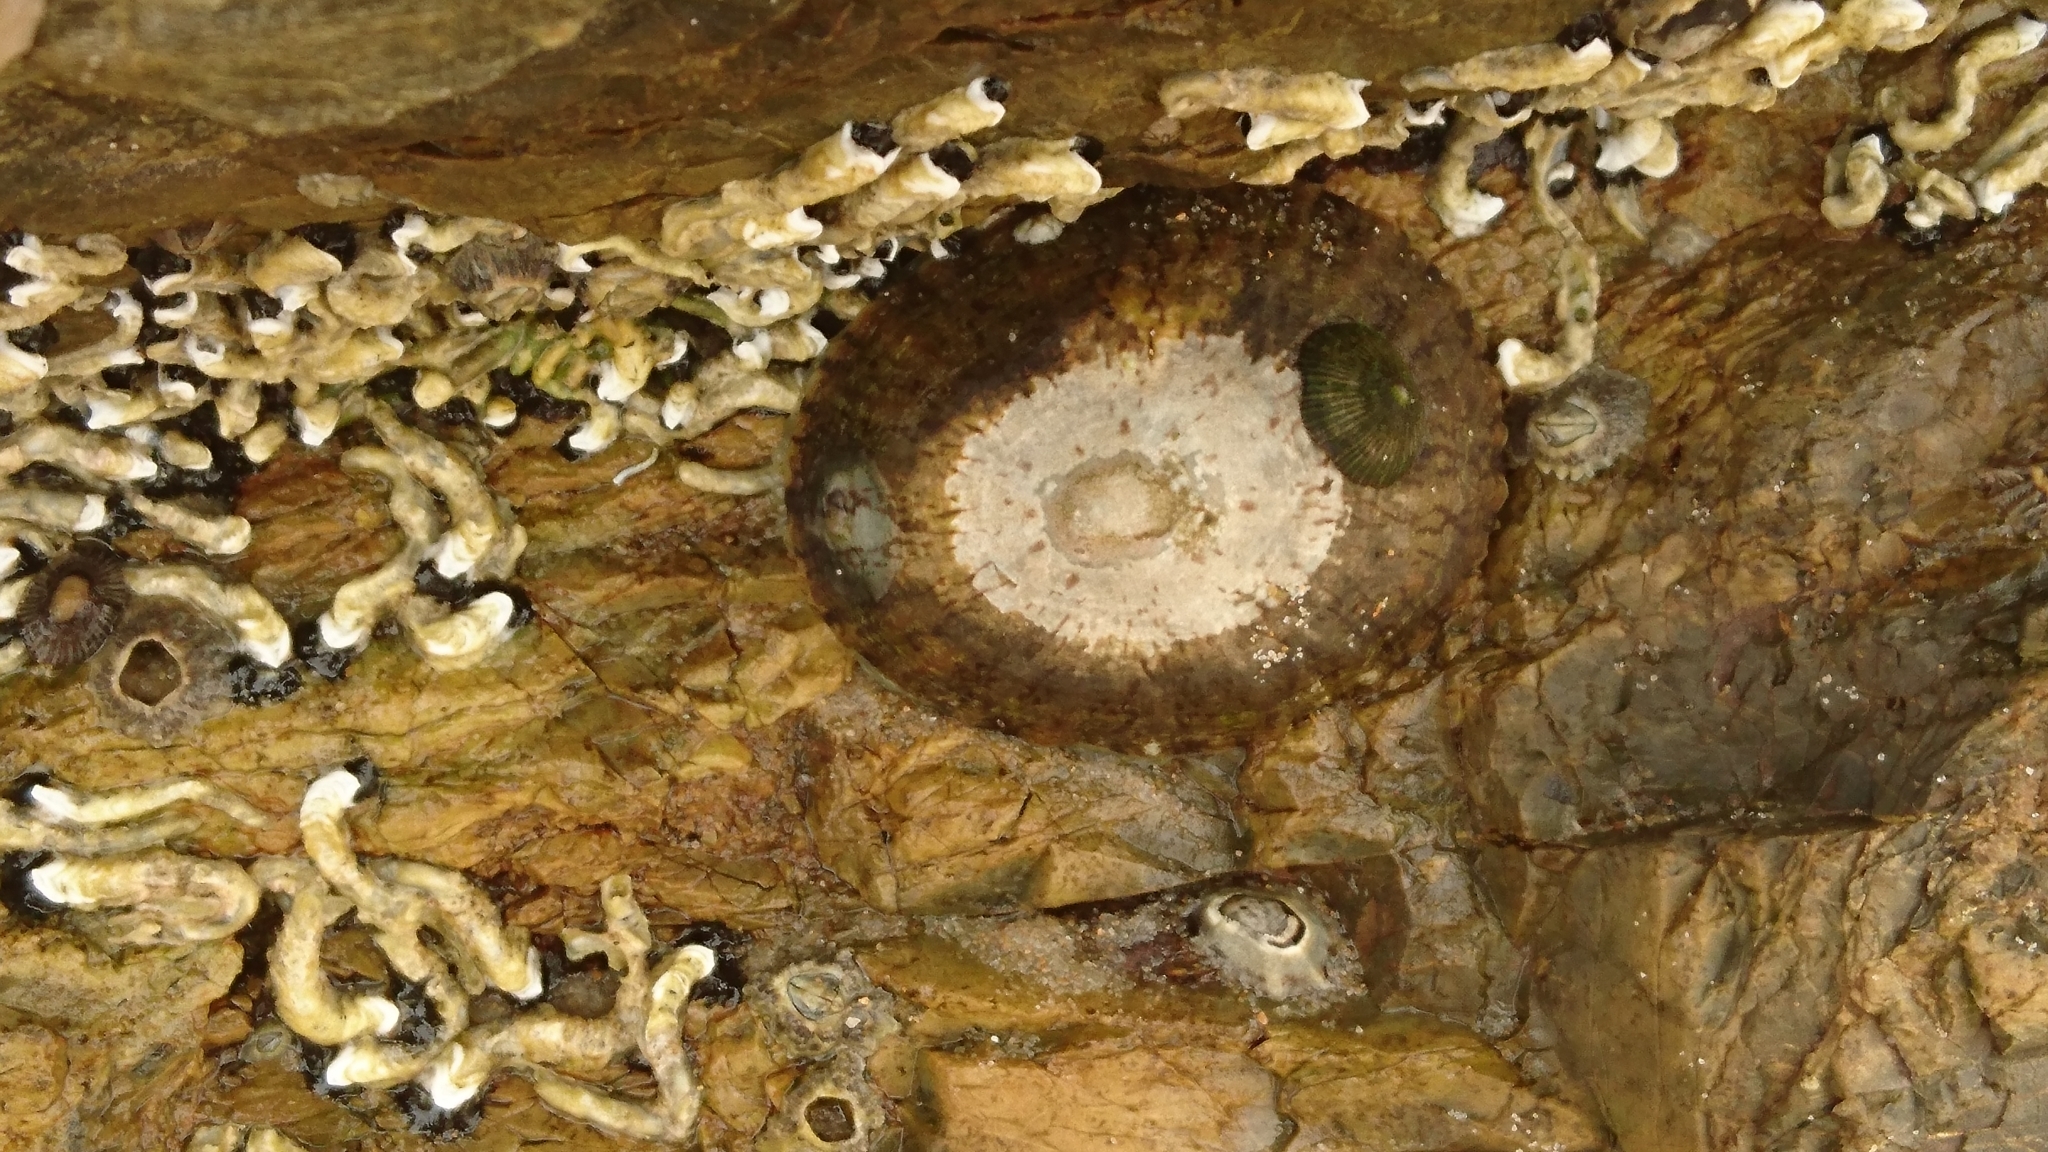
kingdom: Animalia
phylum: Mollusca
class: Gastropoda
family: Nacellidae
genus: Cellana
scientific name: Cellana tramoserica
